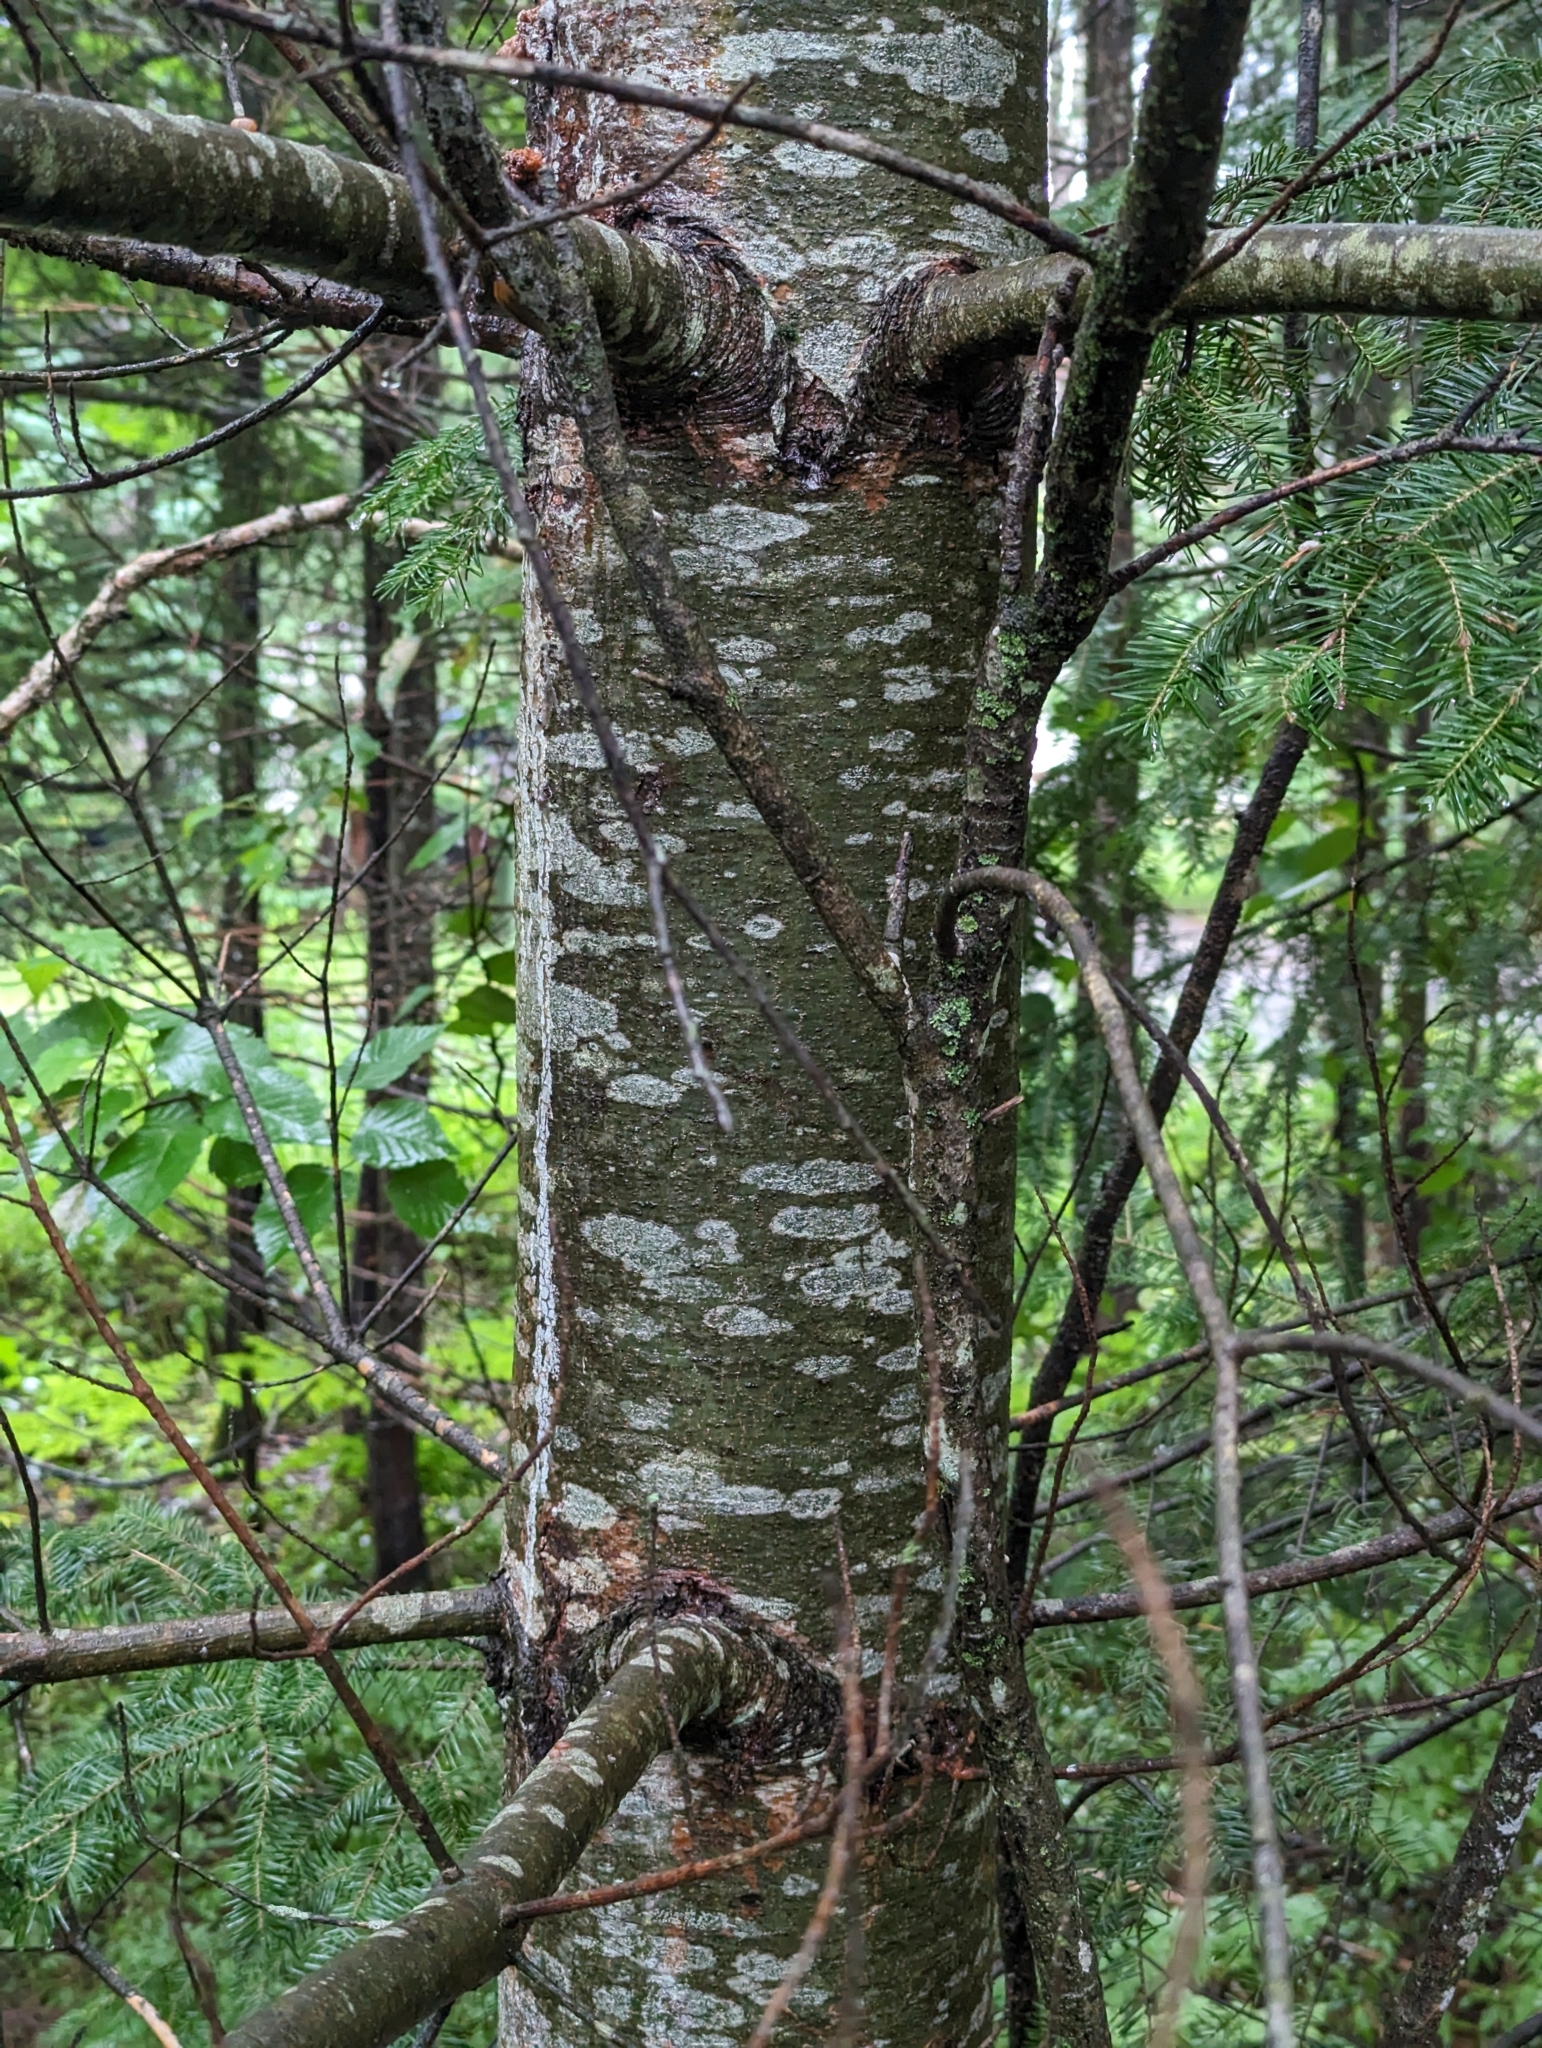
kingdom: Plantae
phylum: Tracheophyta
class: Pinopsida
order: Pinales
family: Pinaceae
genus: Pinus
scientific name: Pinus strobus
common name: Weymouth pine
